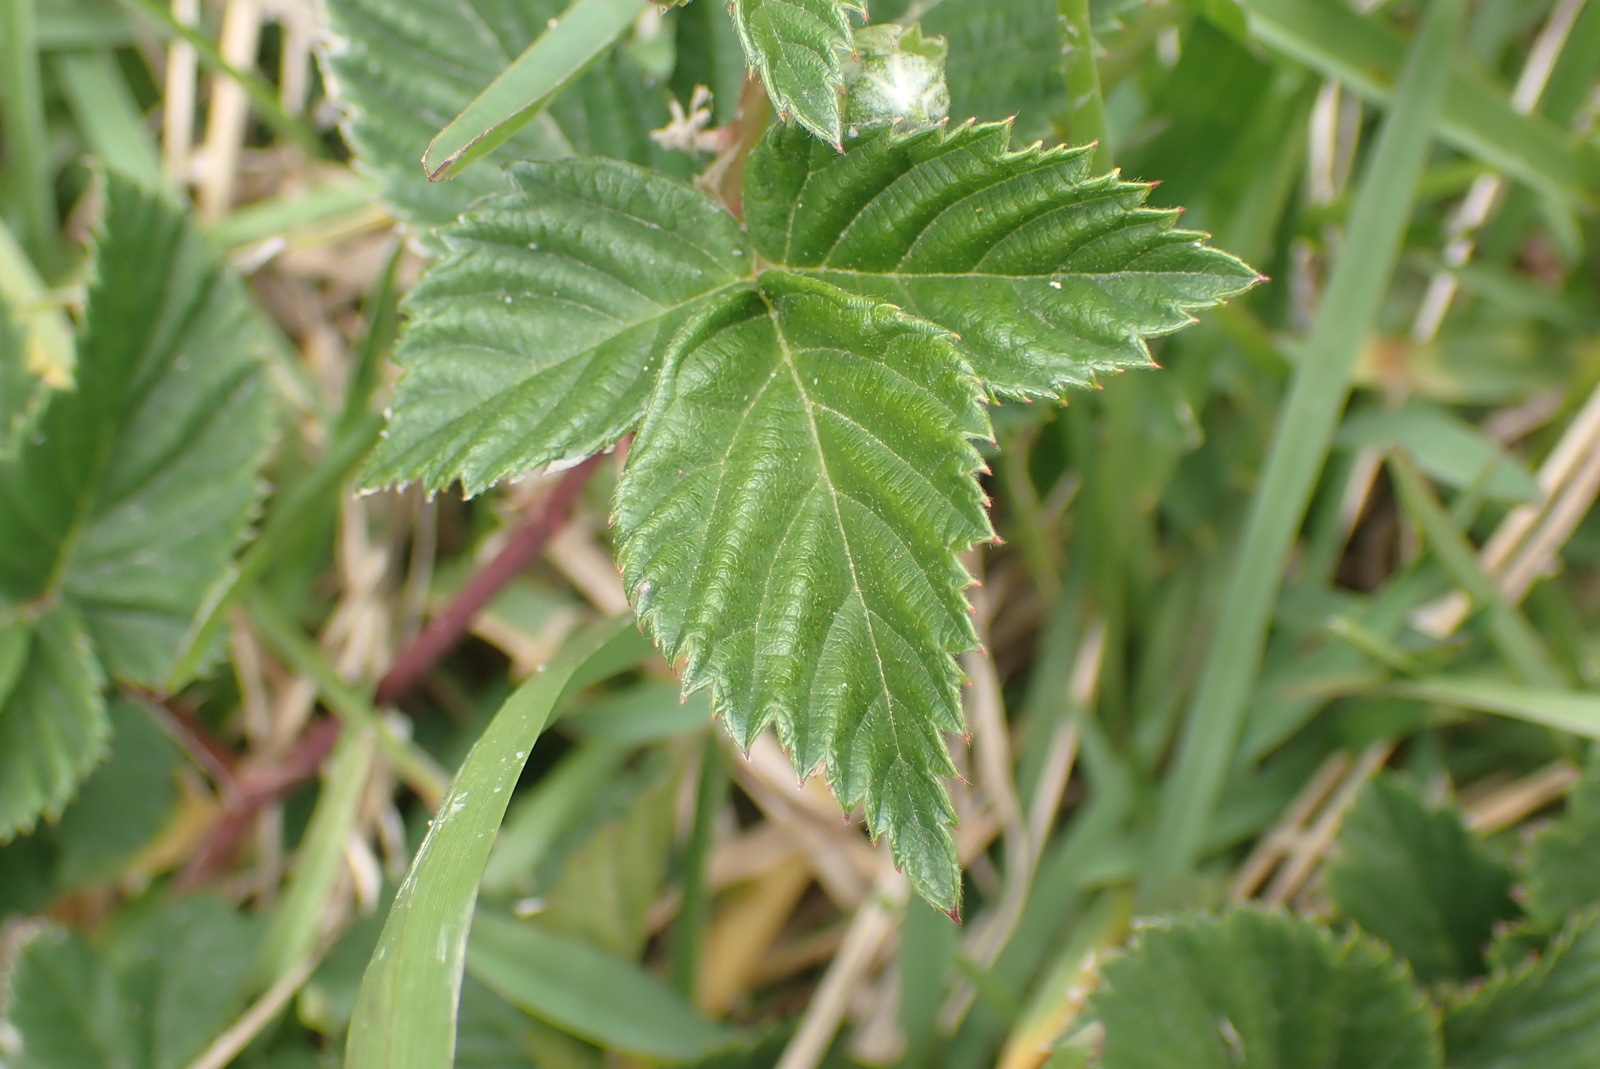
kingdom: Plantae
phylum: Tracheophyta
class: Magnoliopsida
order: Rosales
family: Rosaceae
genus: Rubus
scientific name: Rubus affinis
